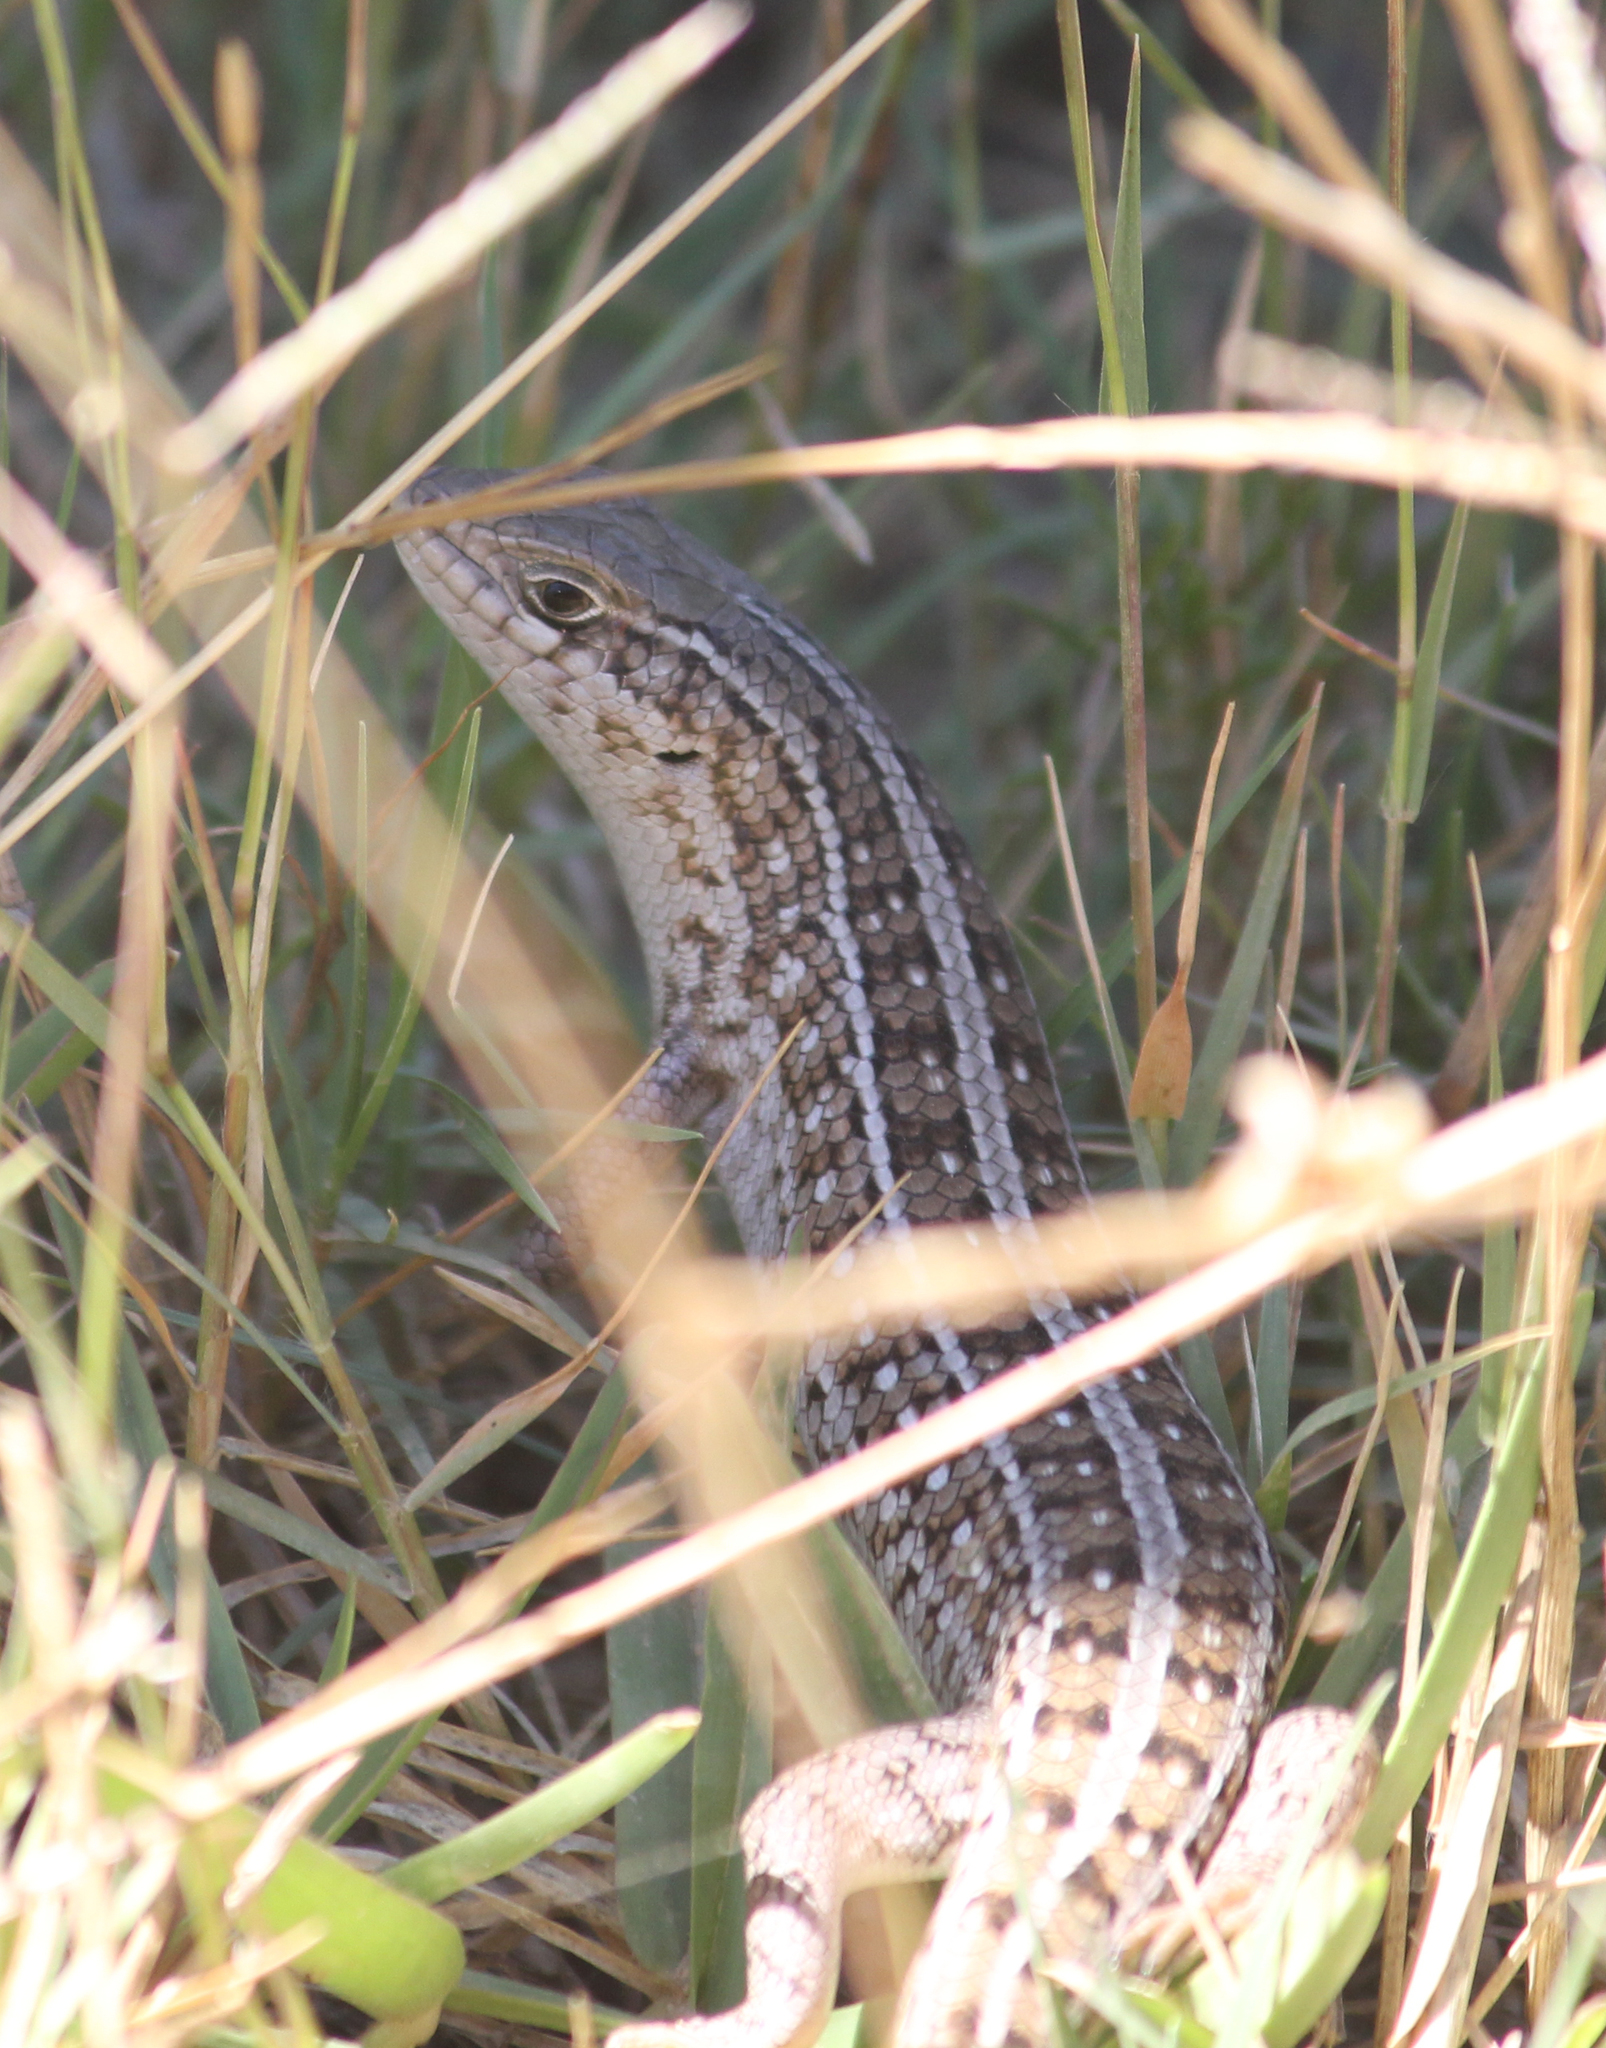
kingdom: Animalia
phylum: Chordata
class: Squamata
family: Scincidae
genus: Trachylepis
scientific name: Trachylepis capensis
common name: Cape skink
